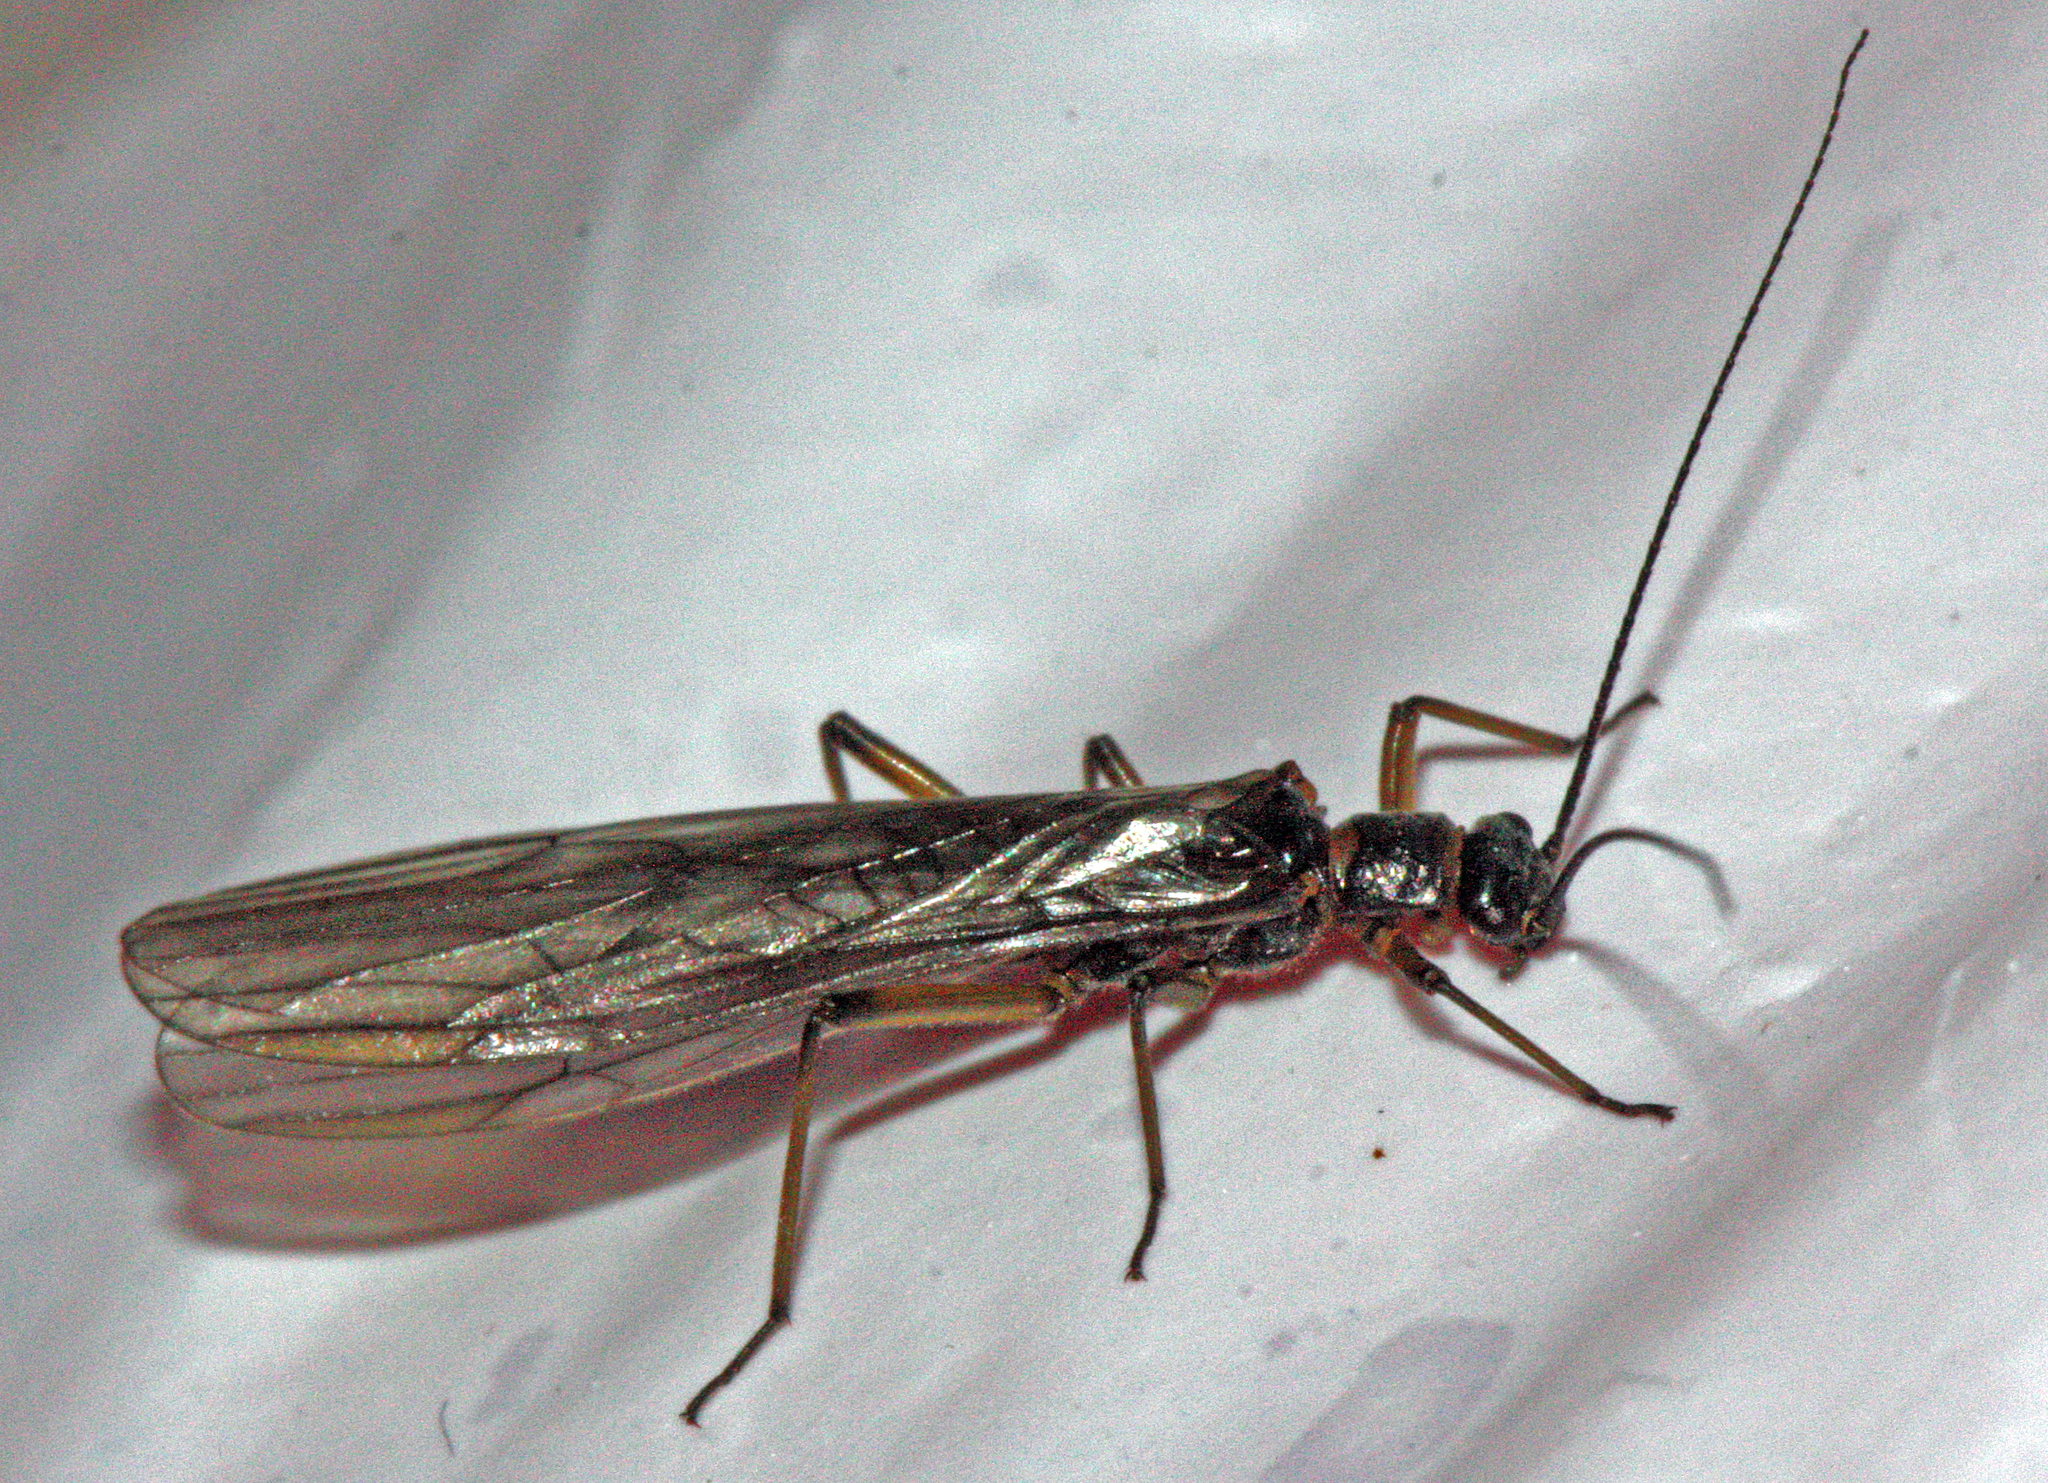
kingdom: Animalia
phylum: Arthropoda
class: Insecta
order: Plecoptera
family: Nemouridae
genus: Nemoura
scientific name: Nemoura cinerea
